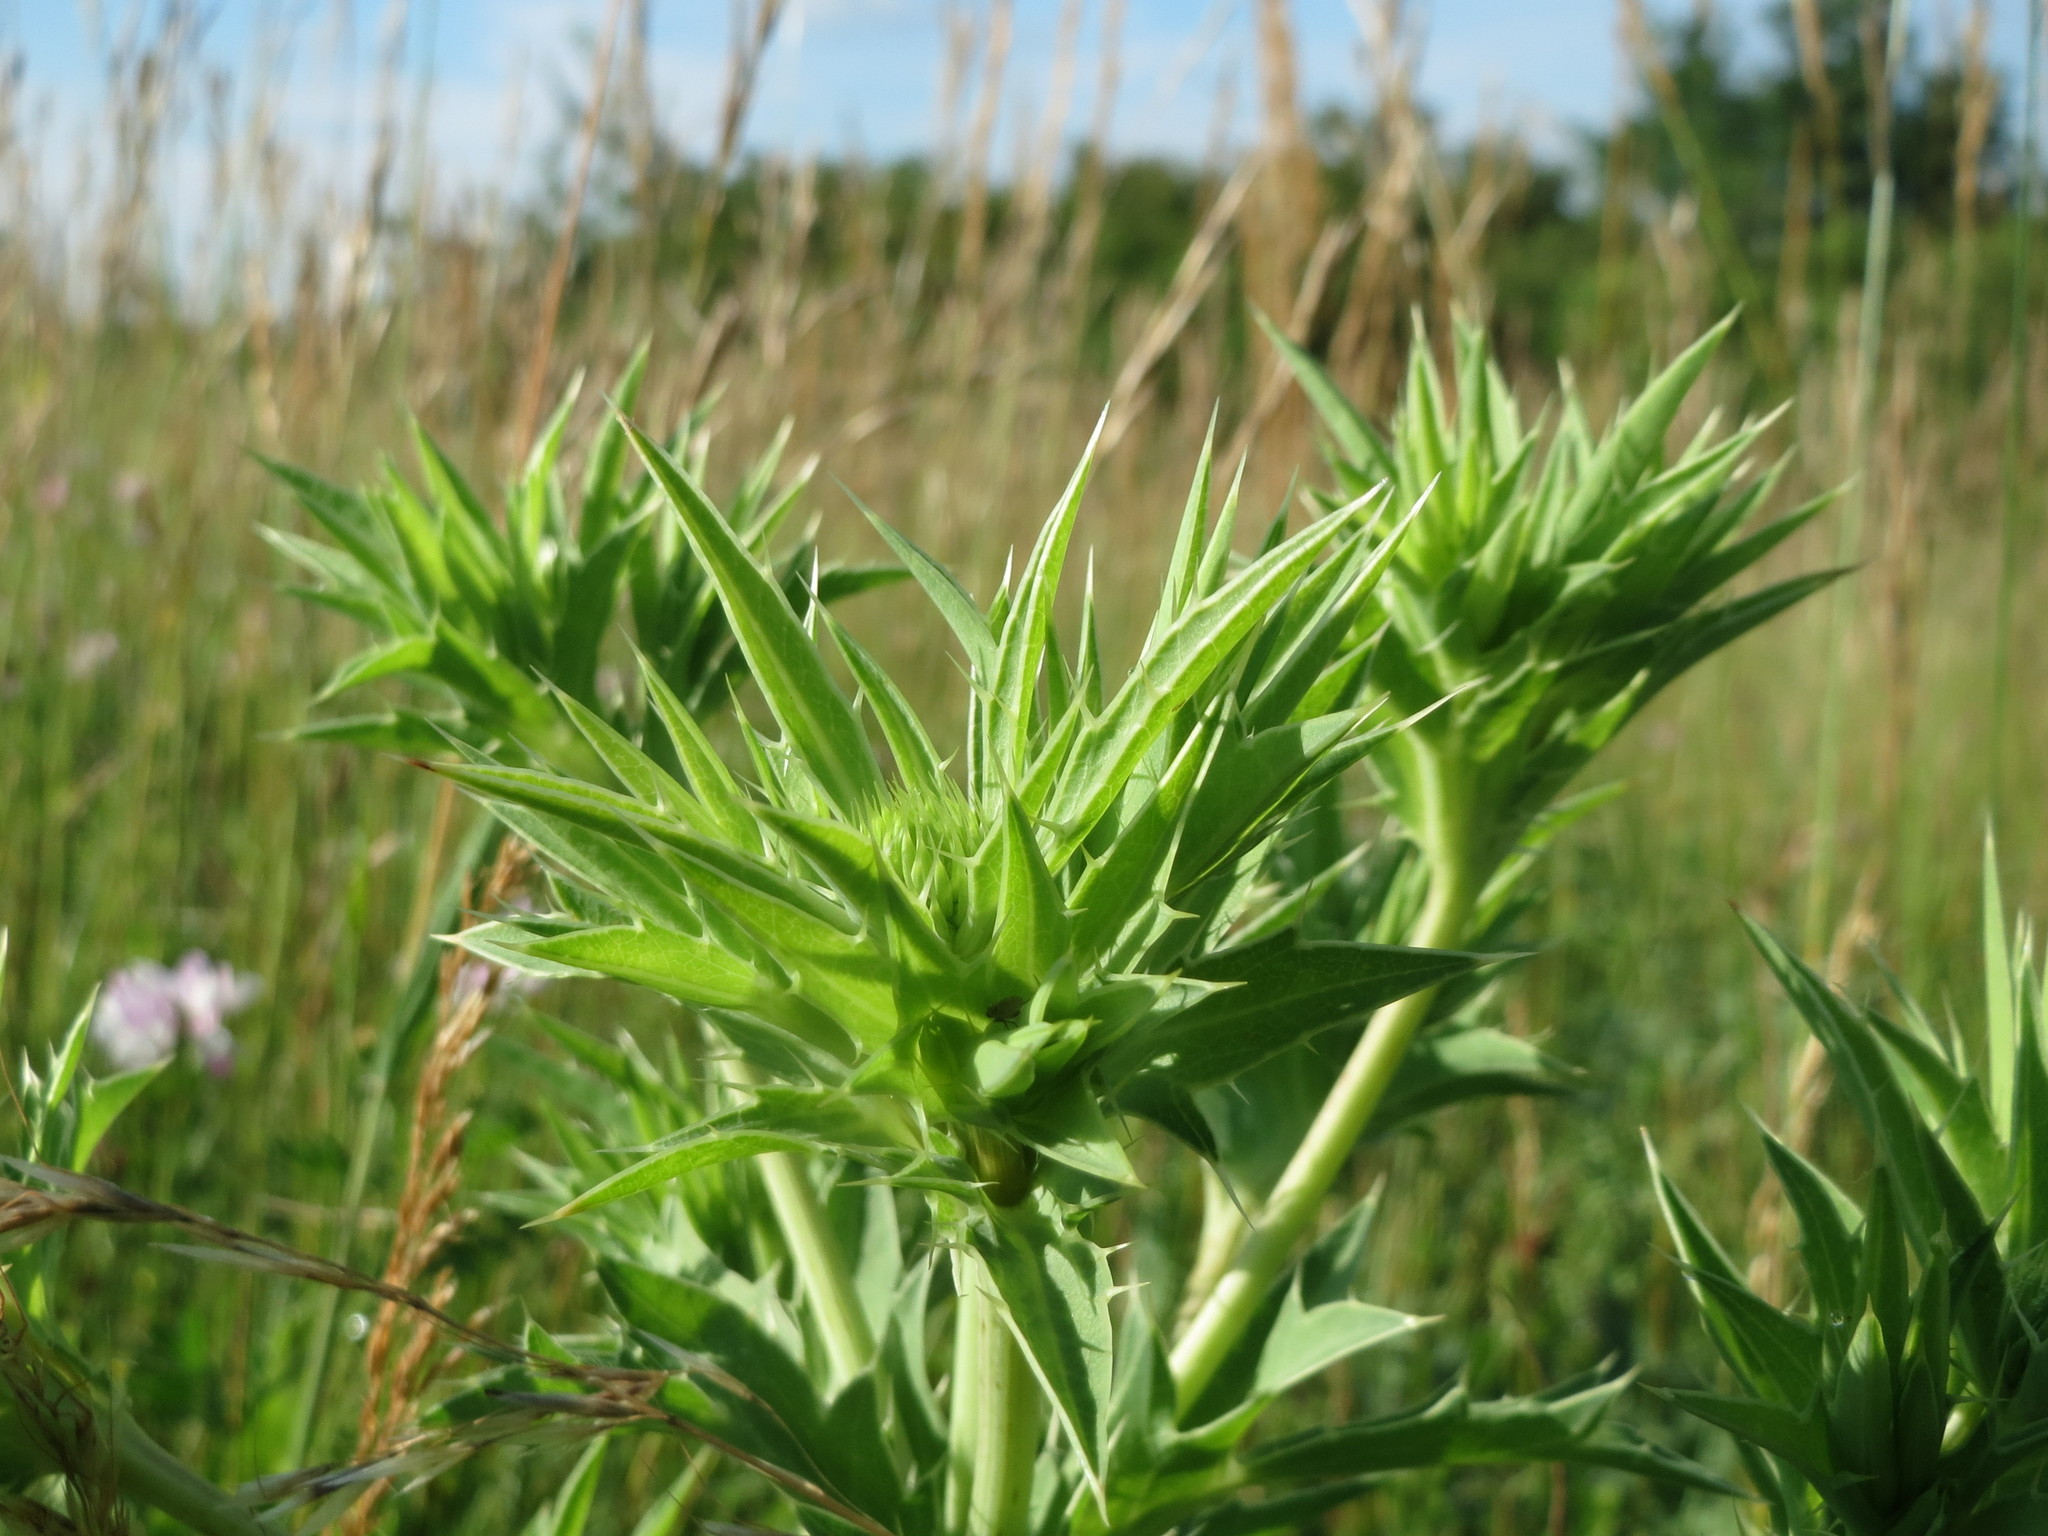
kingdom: Plantae
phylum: Tracheophyta
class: Magnoliopsida
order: Apiales
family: Apiaceae
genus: Eryngium
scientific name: Eryngium campestre
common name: Field eryngo
